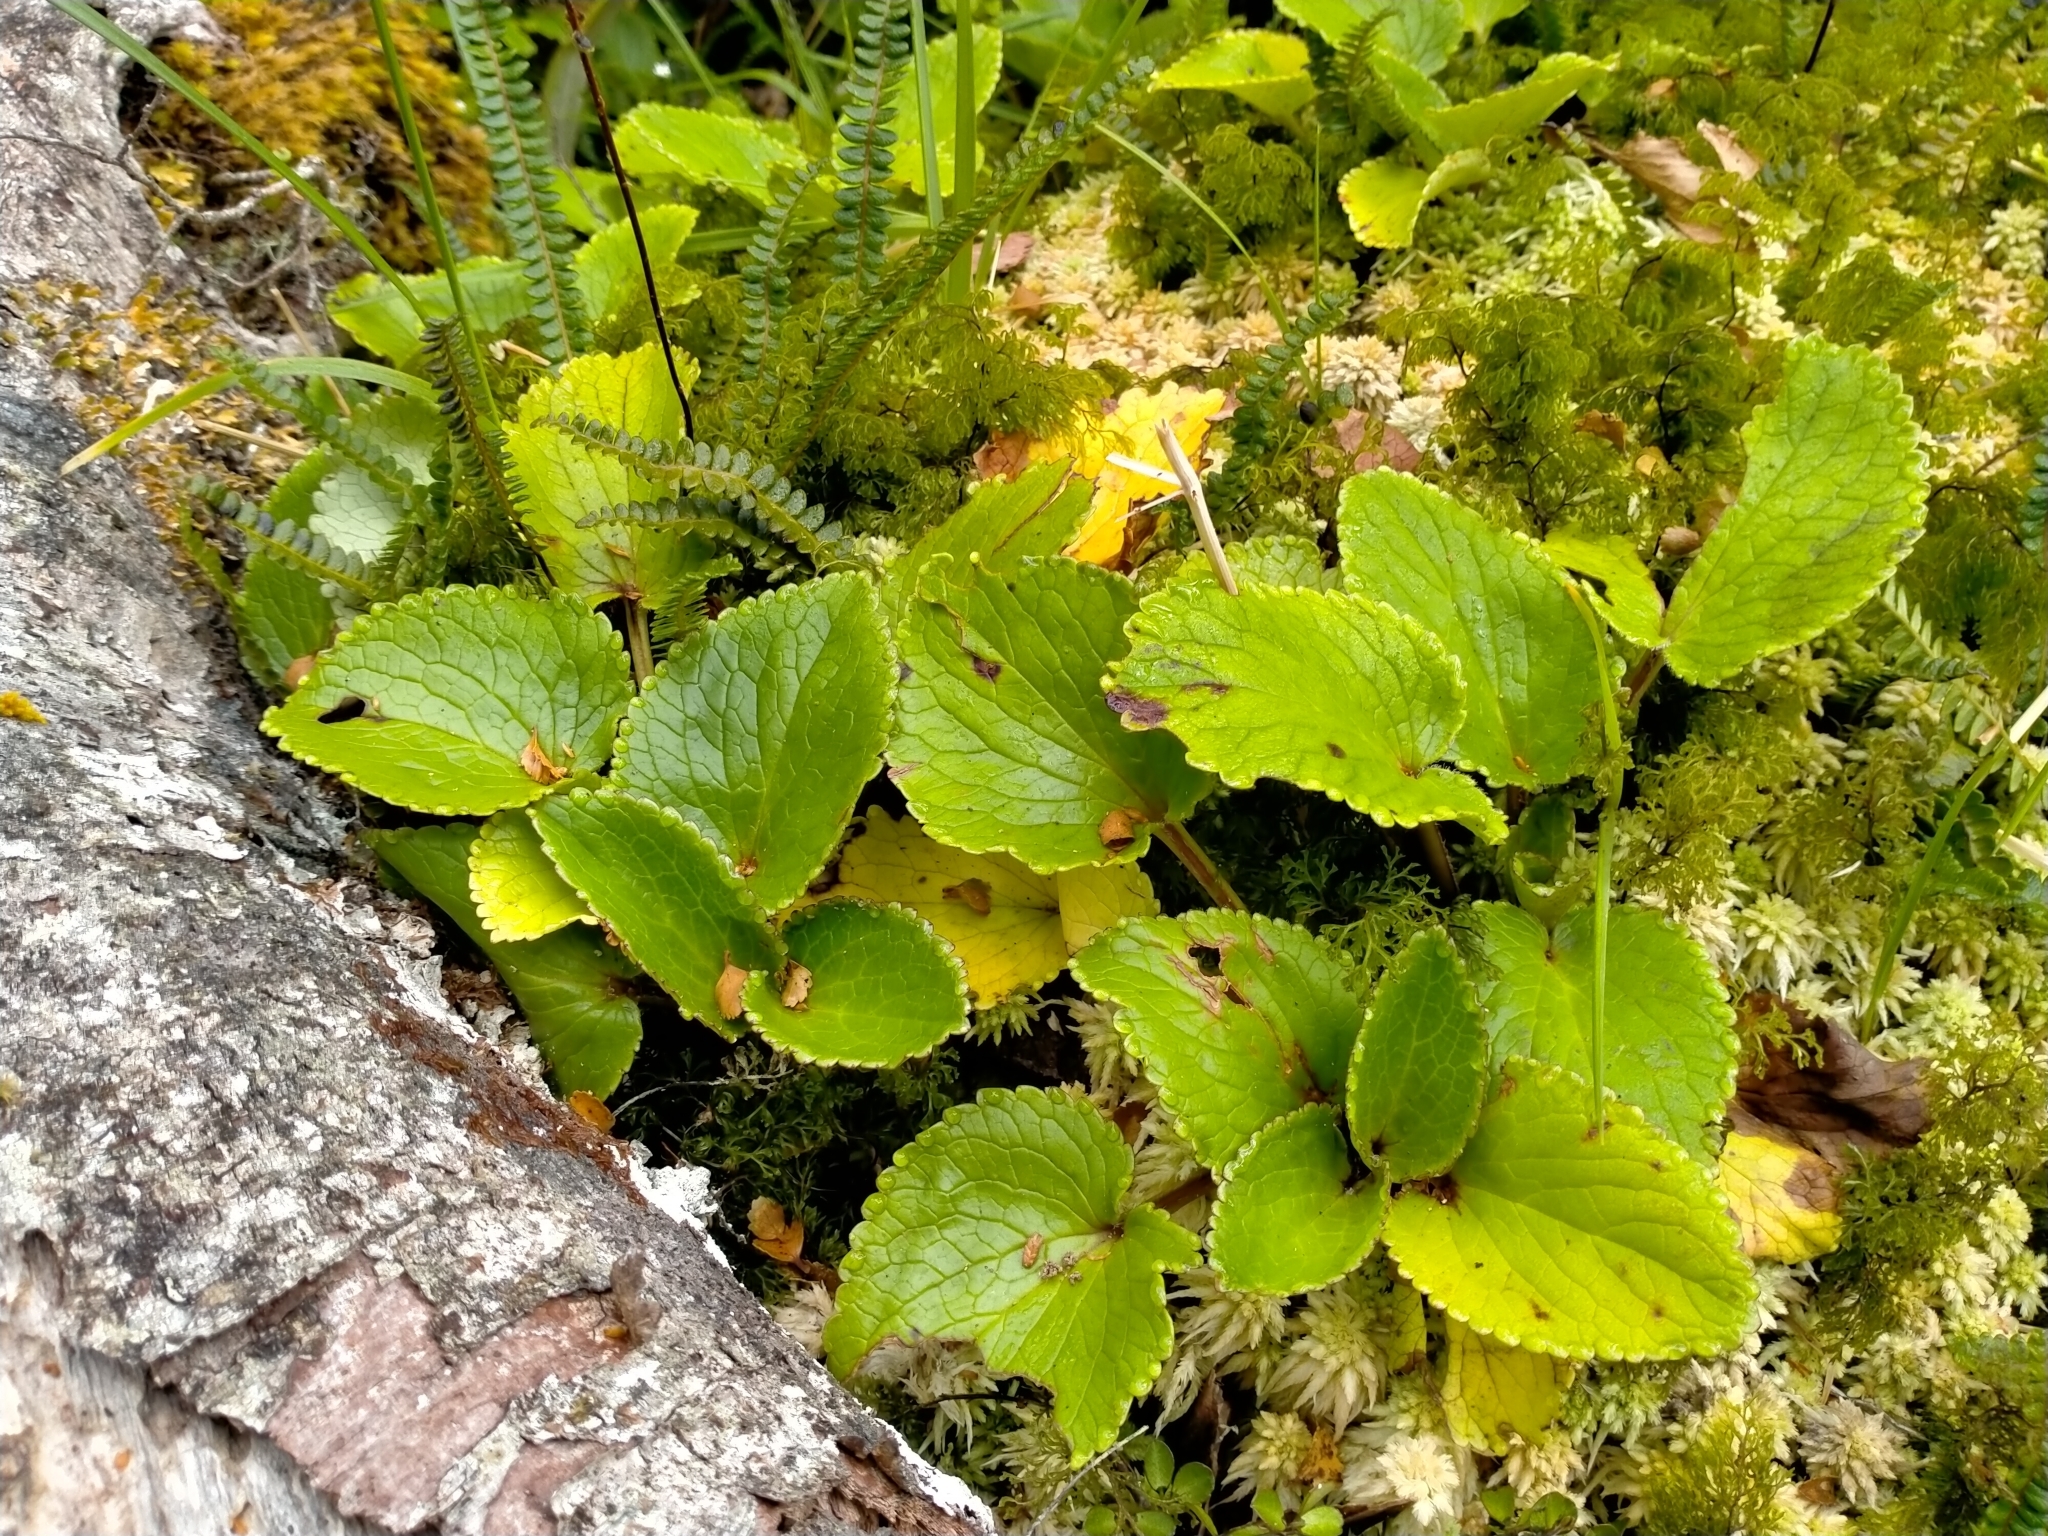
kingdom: Plantae
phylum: Tracheophyta
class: Magnoliopsida
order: Lamiales
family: Plantaginaceae
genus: Ourisia
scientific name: Ourisia macrocarpa
